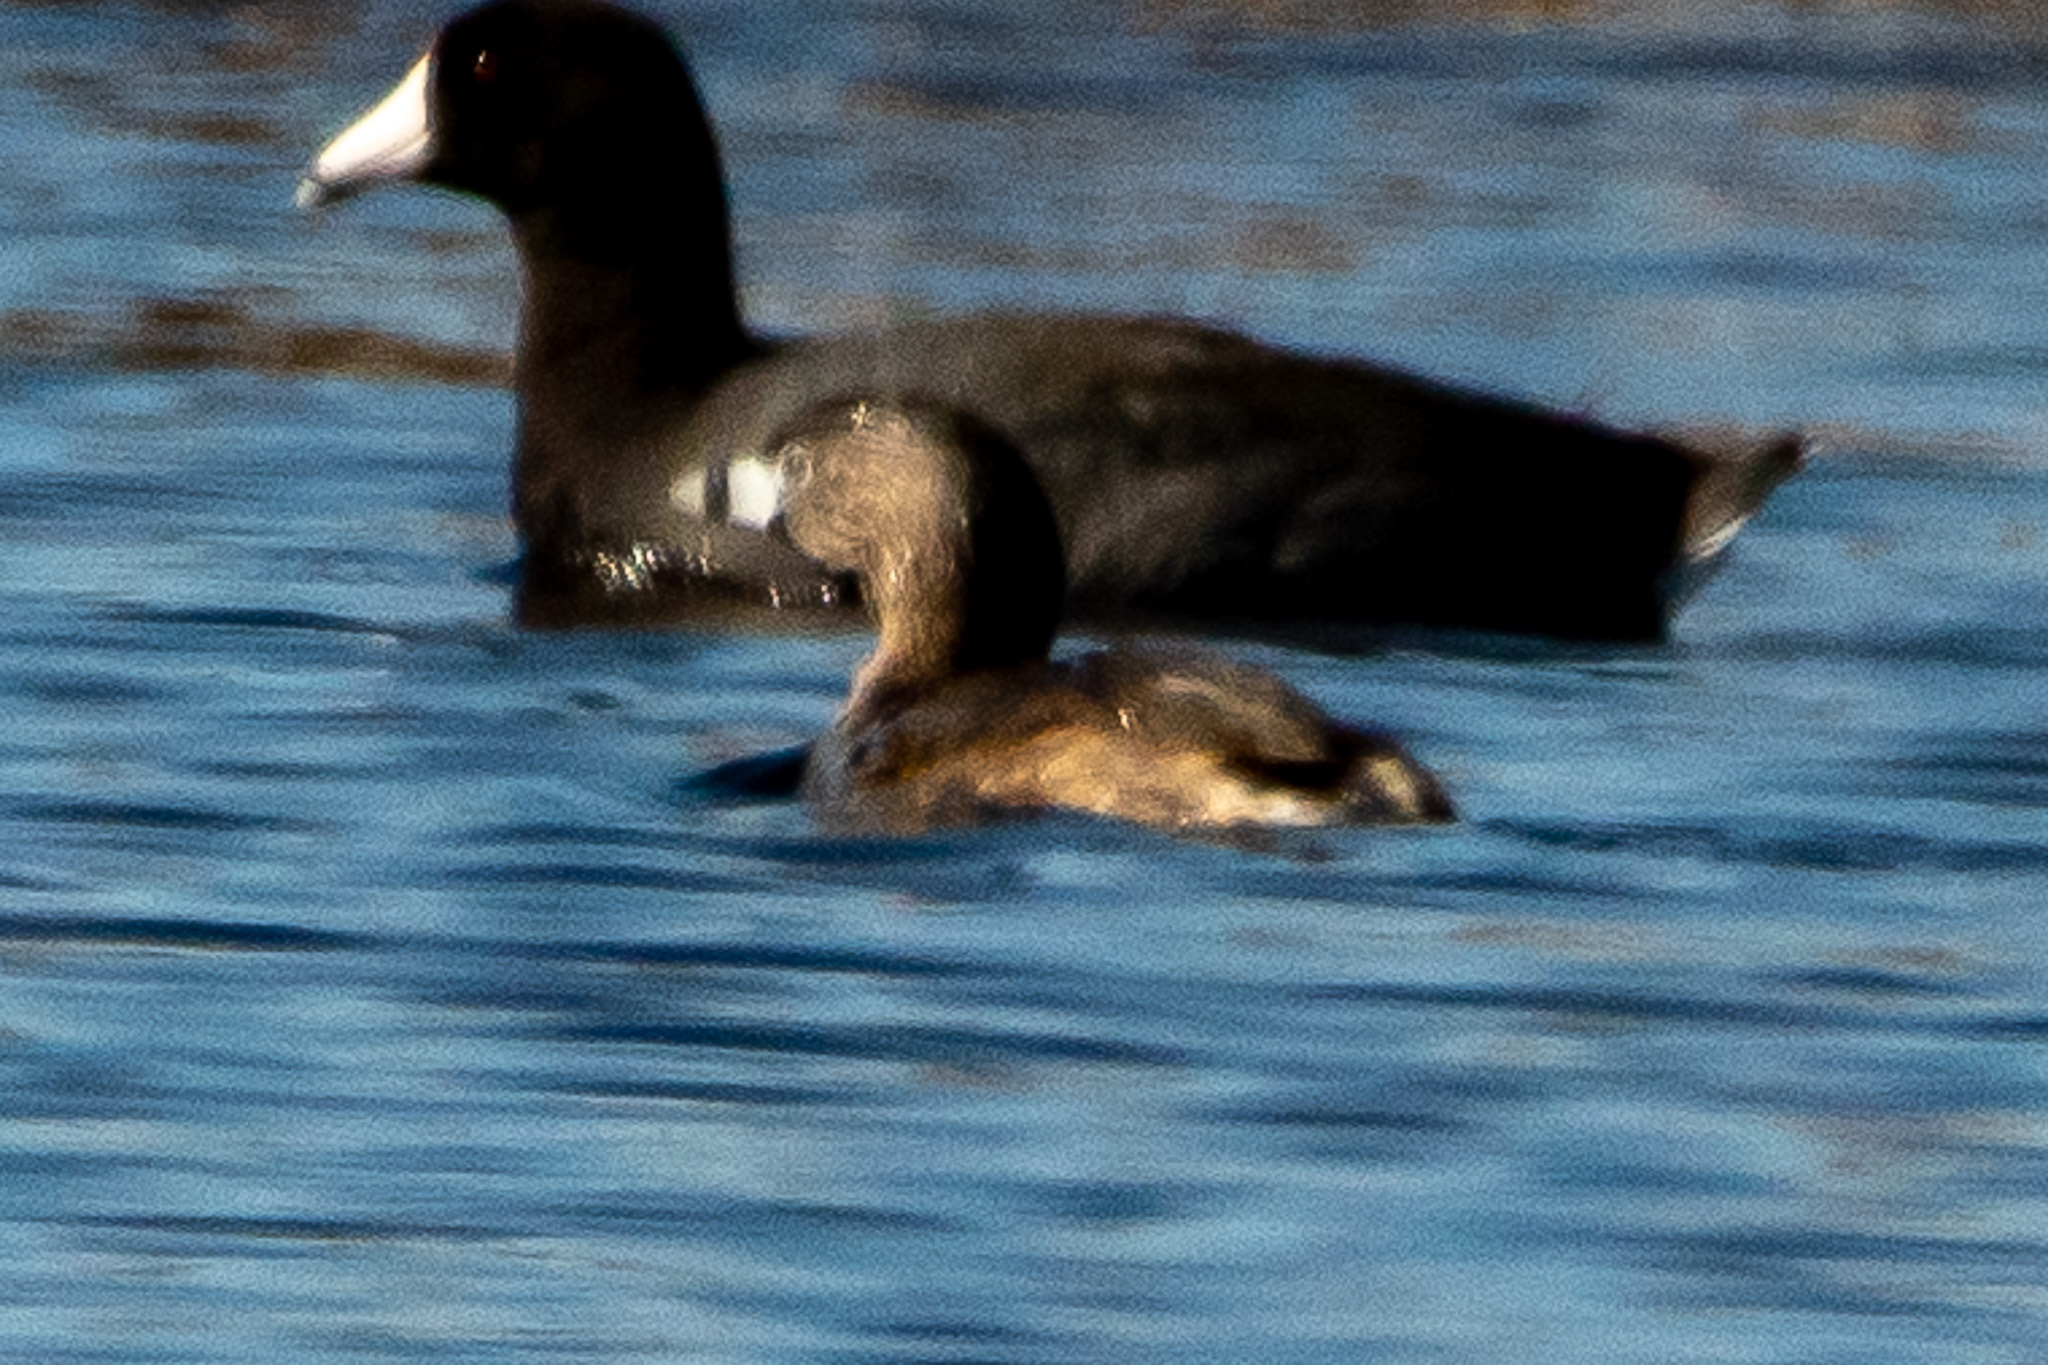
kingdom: Animalia
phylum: Chordata
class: Aves
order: Podicipediformes
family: Podicipedidae
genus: Podilymbus
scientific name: Podilymbus podiceps
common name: Pied-billed grebe
